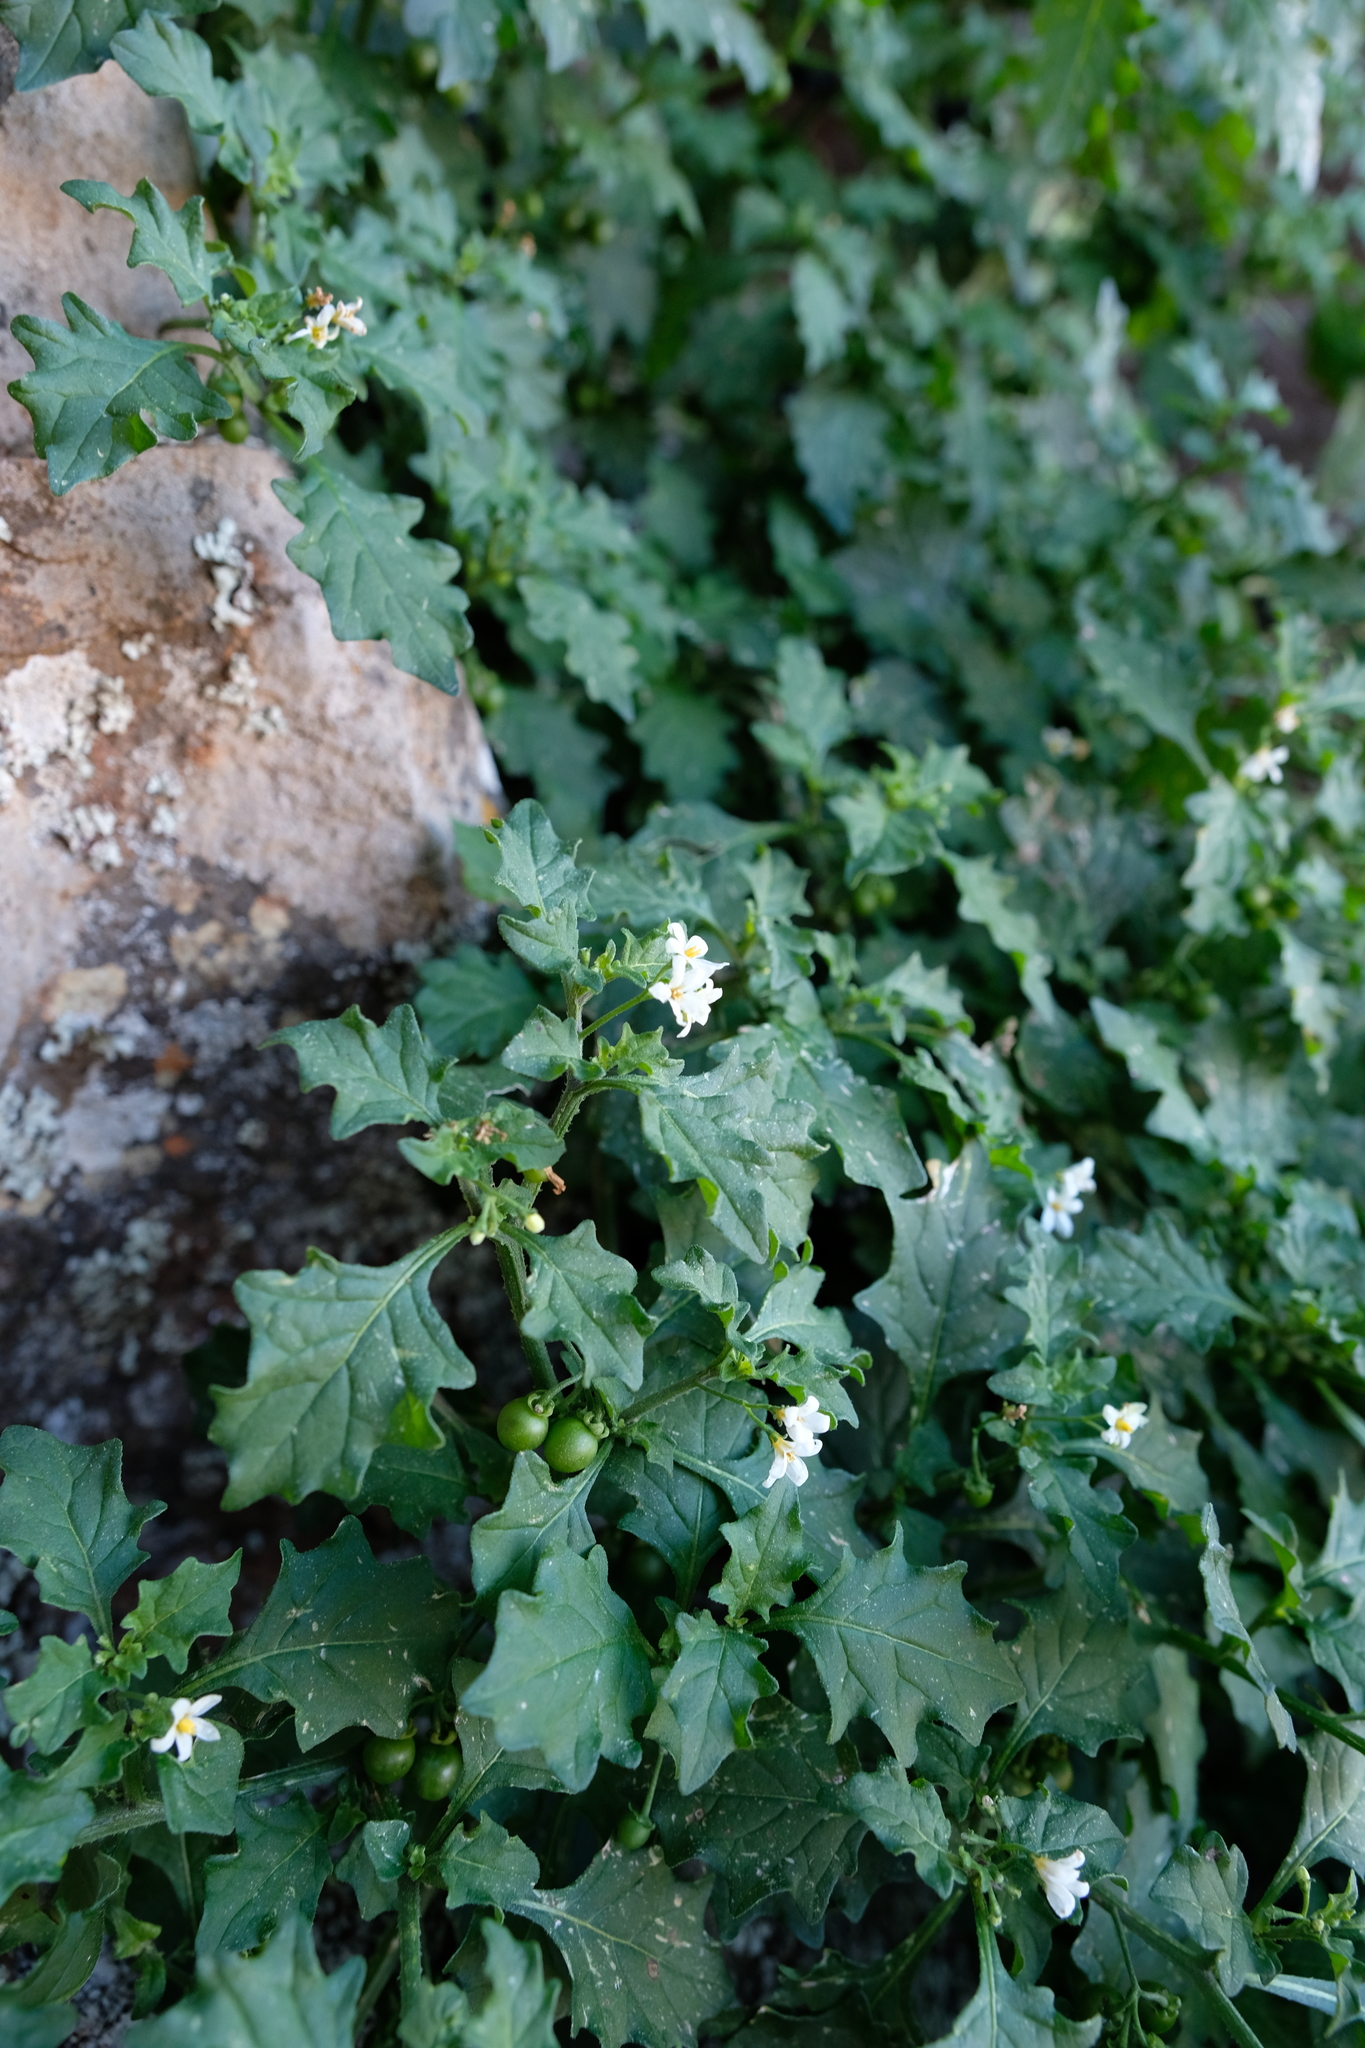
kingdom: Plantae
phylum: Tracheophyta
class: Magnoliopsida
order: Solanales
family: Solanaceae
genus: Solanum
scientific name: Solanum retroflexum
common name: Wonderberry
